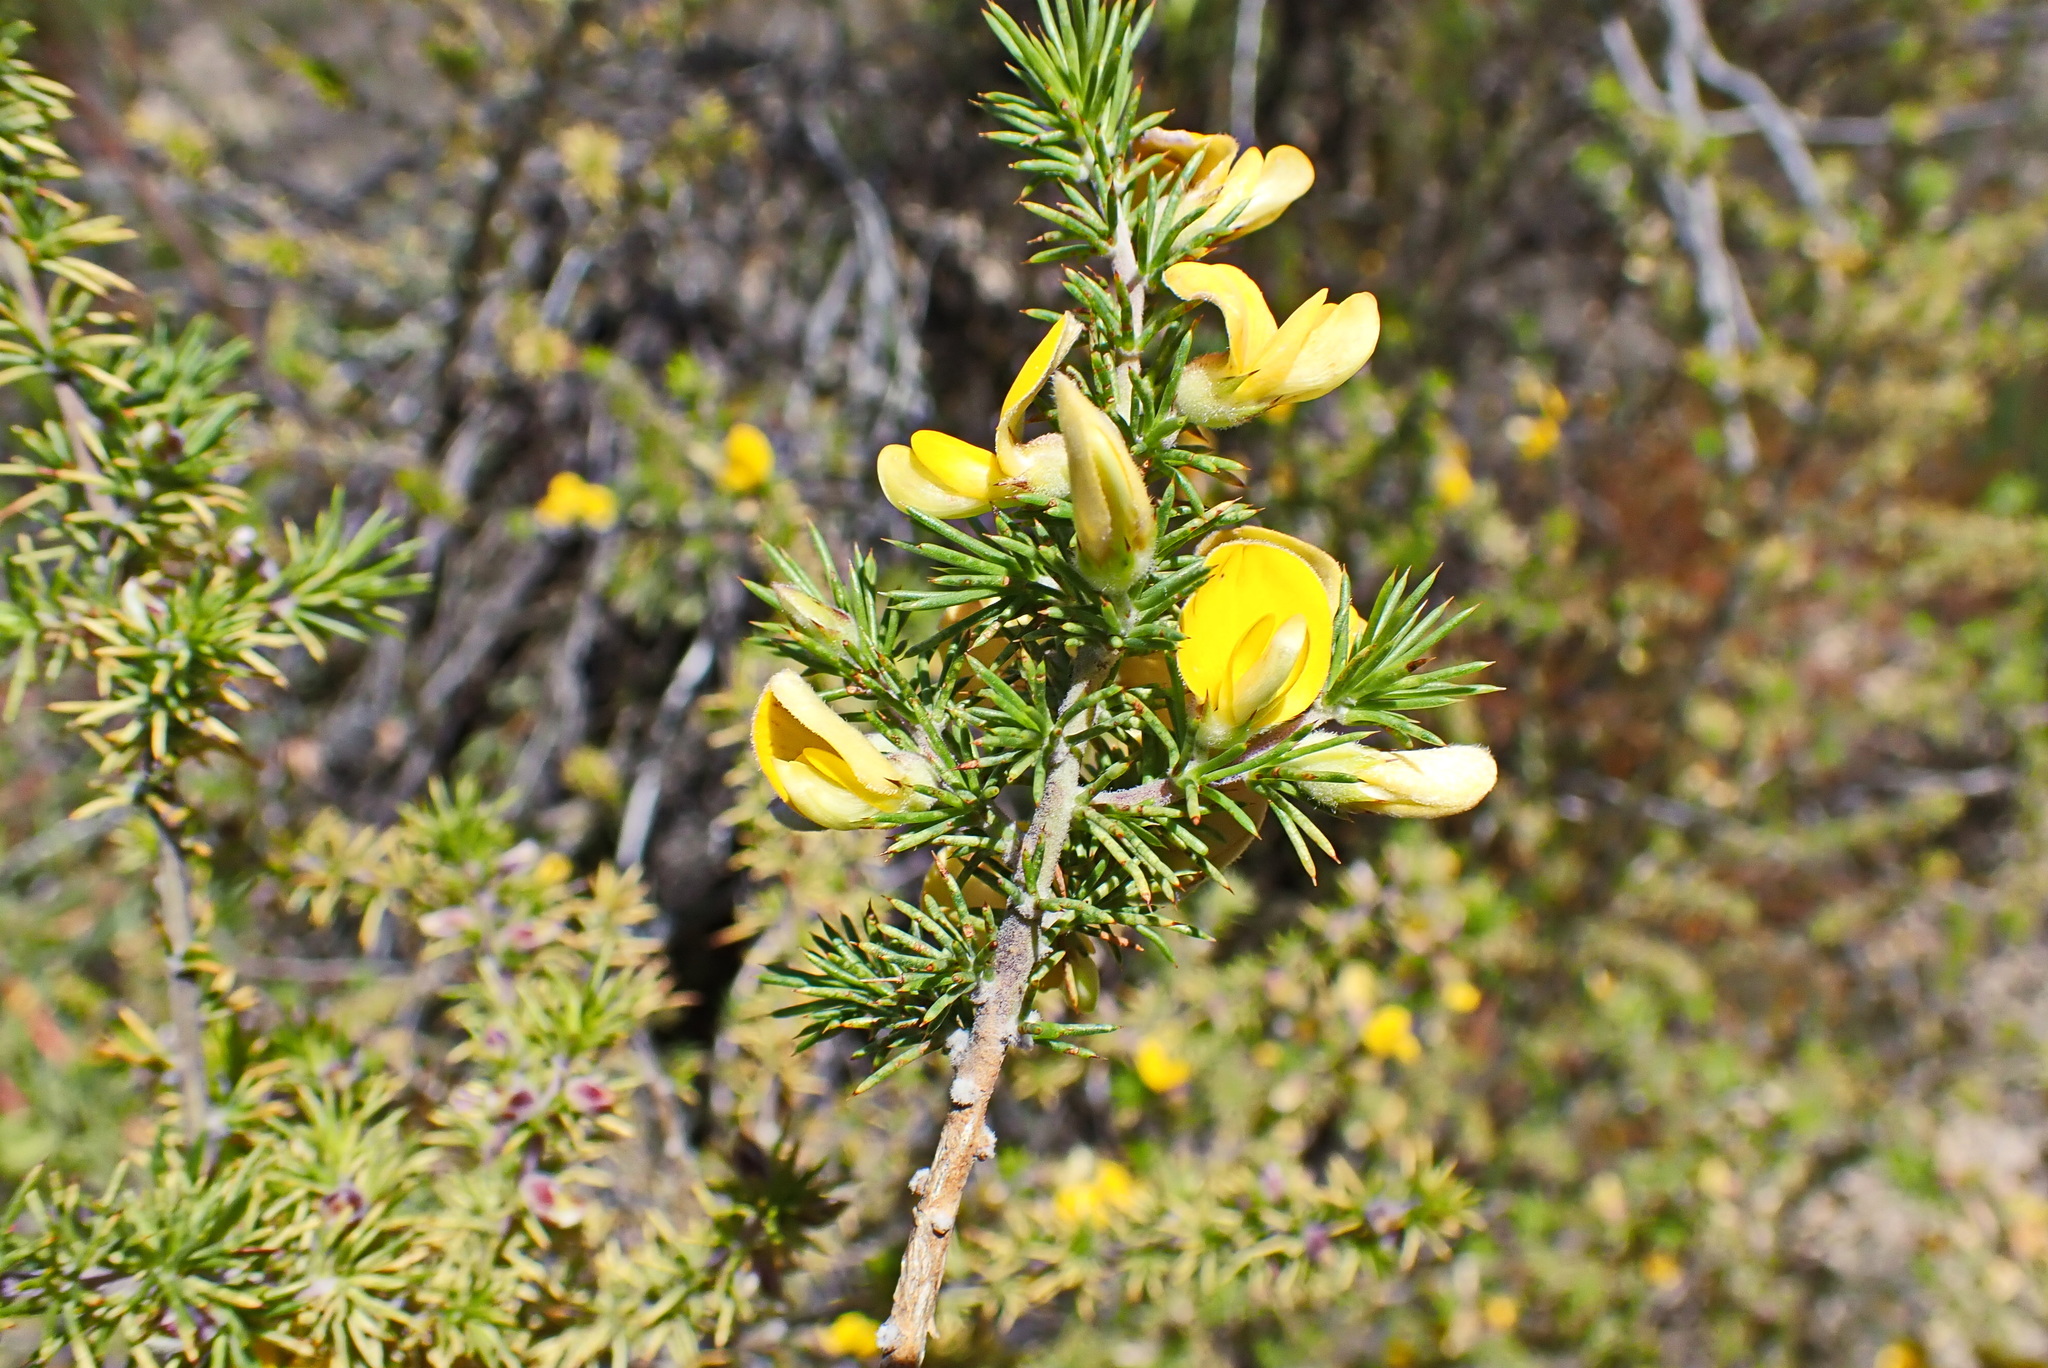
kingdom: Plantae
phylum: Tracheophyta
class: Magnoliopsida
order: Fabales
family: Fabaceae
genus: Aspalathus
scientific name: Aspalathus hirta
